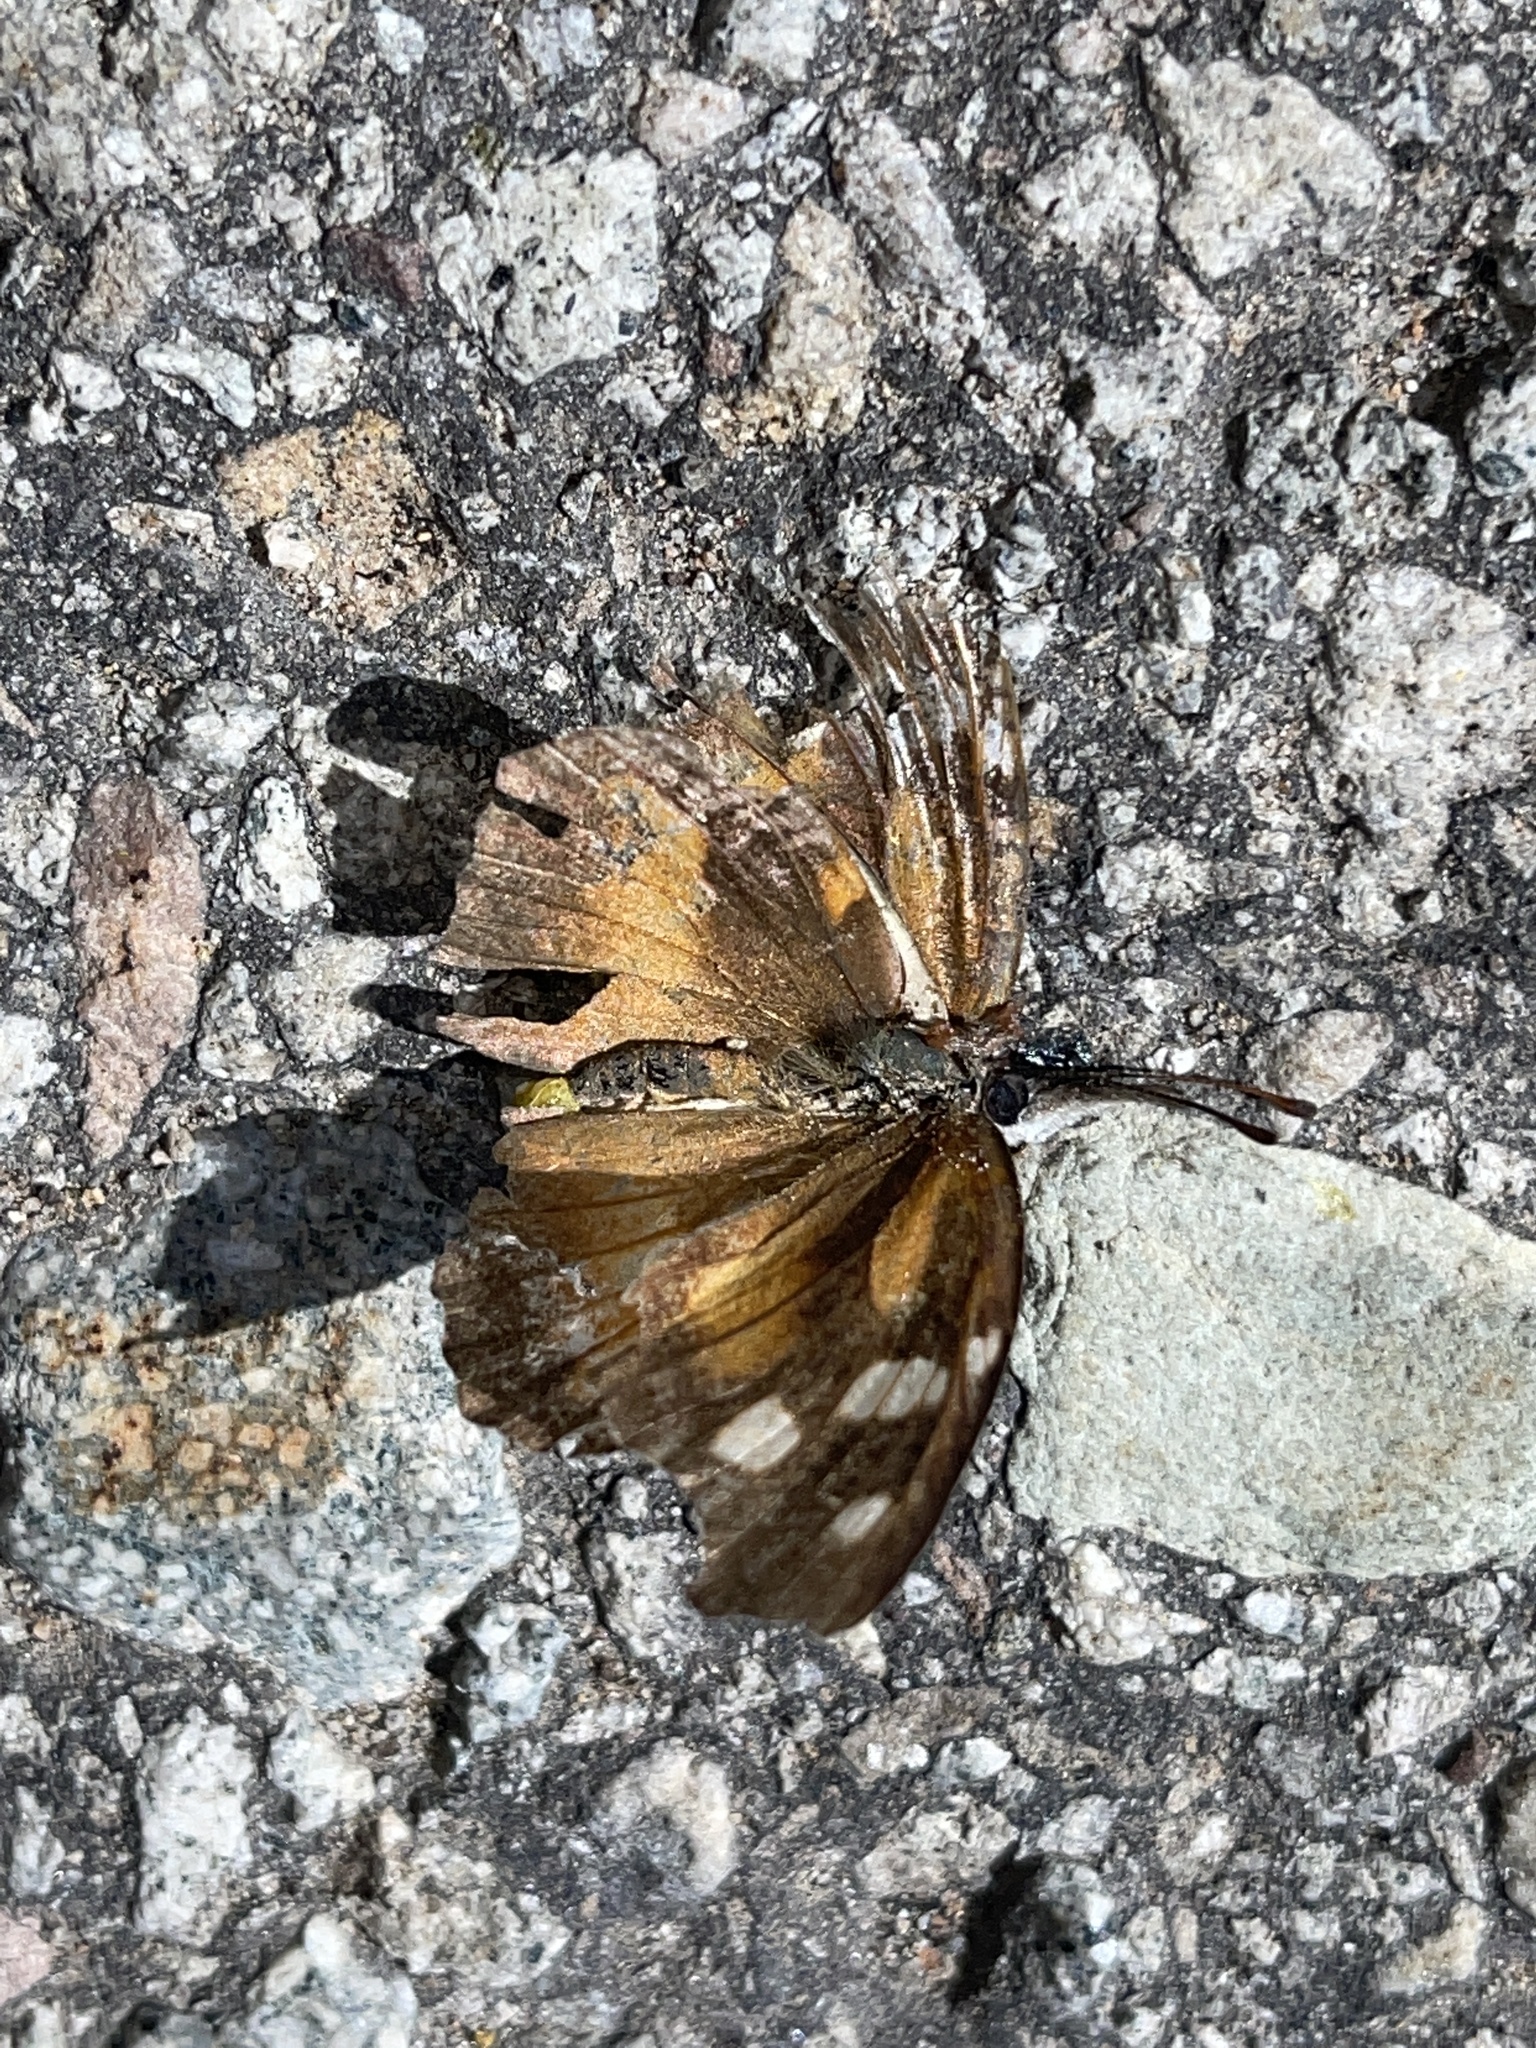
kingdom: Animalia
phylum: Arthropoda
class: Insecta
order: Lepidoptera
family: Nymphalidae
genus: Libytheana
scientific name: Libytheana carinenta
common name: American snout
